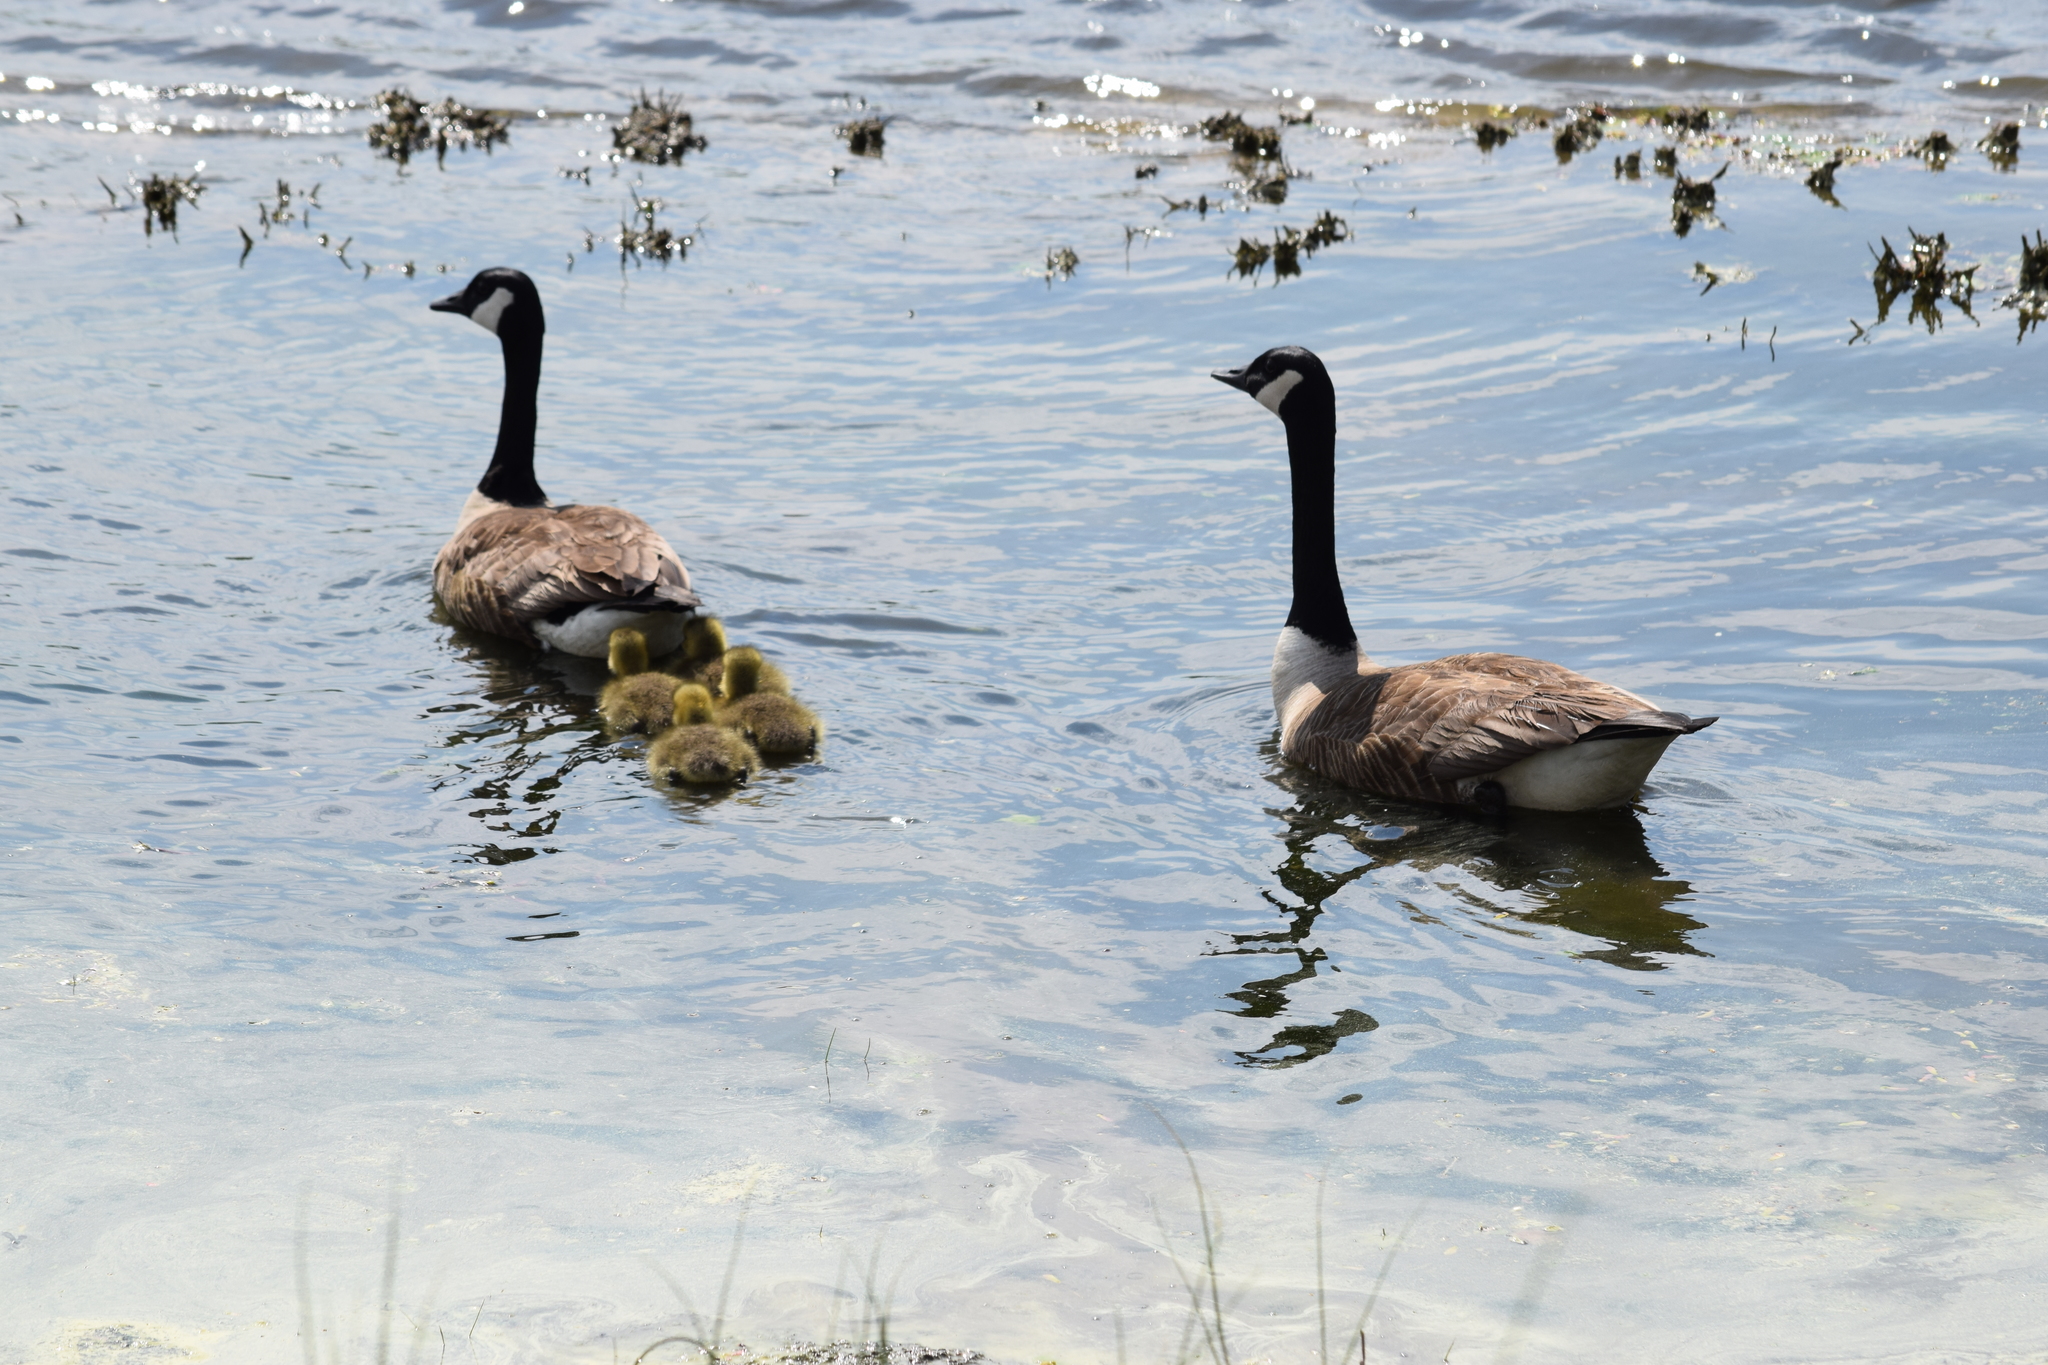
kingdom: Animalia
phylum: Chordata
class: Aves
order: Anseriformes
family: Anatidae
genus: Branta
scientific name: Branta canadensis
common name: Canada goose
